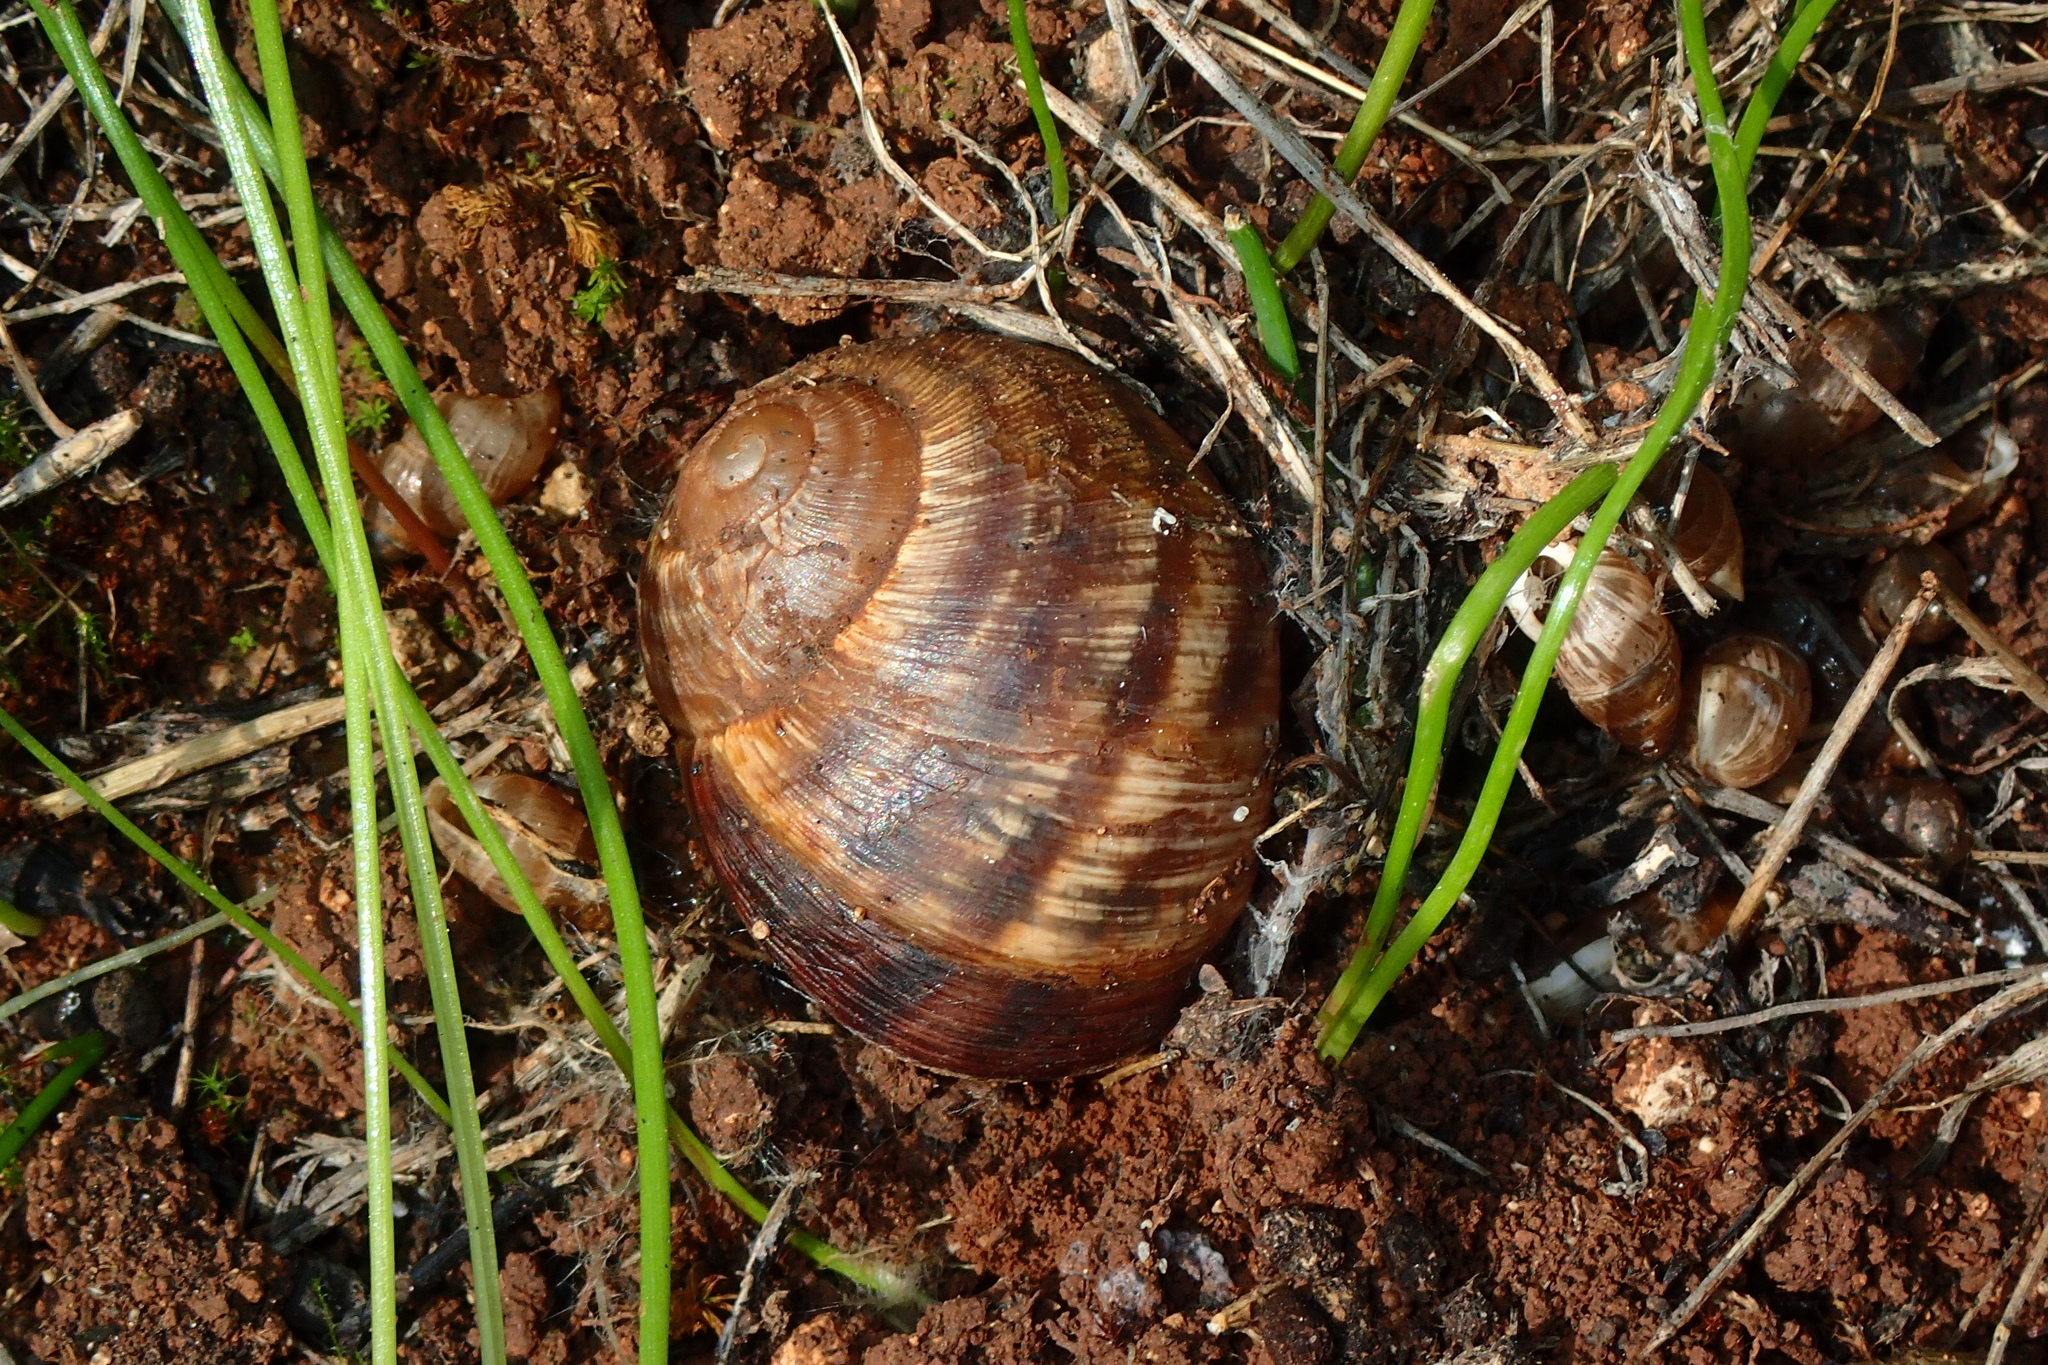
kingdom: Animalia
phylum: Mollusca
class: Gastropoda
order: Stylommatophora
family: Helicidae
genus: Helix
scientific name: Helix nucula
